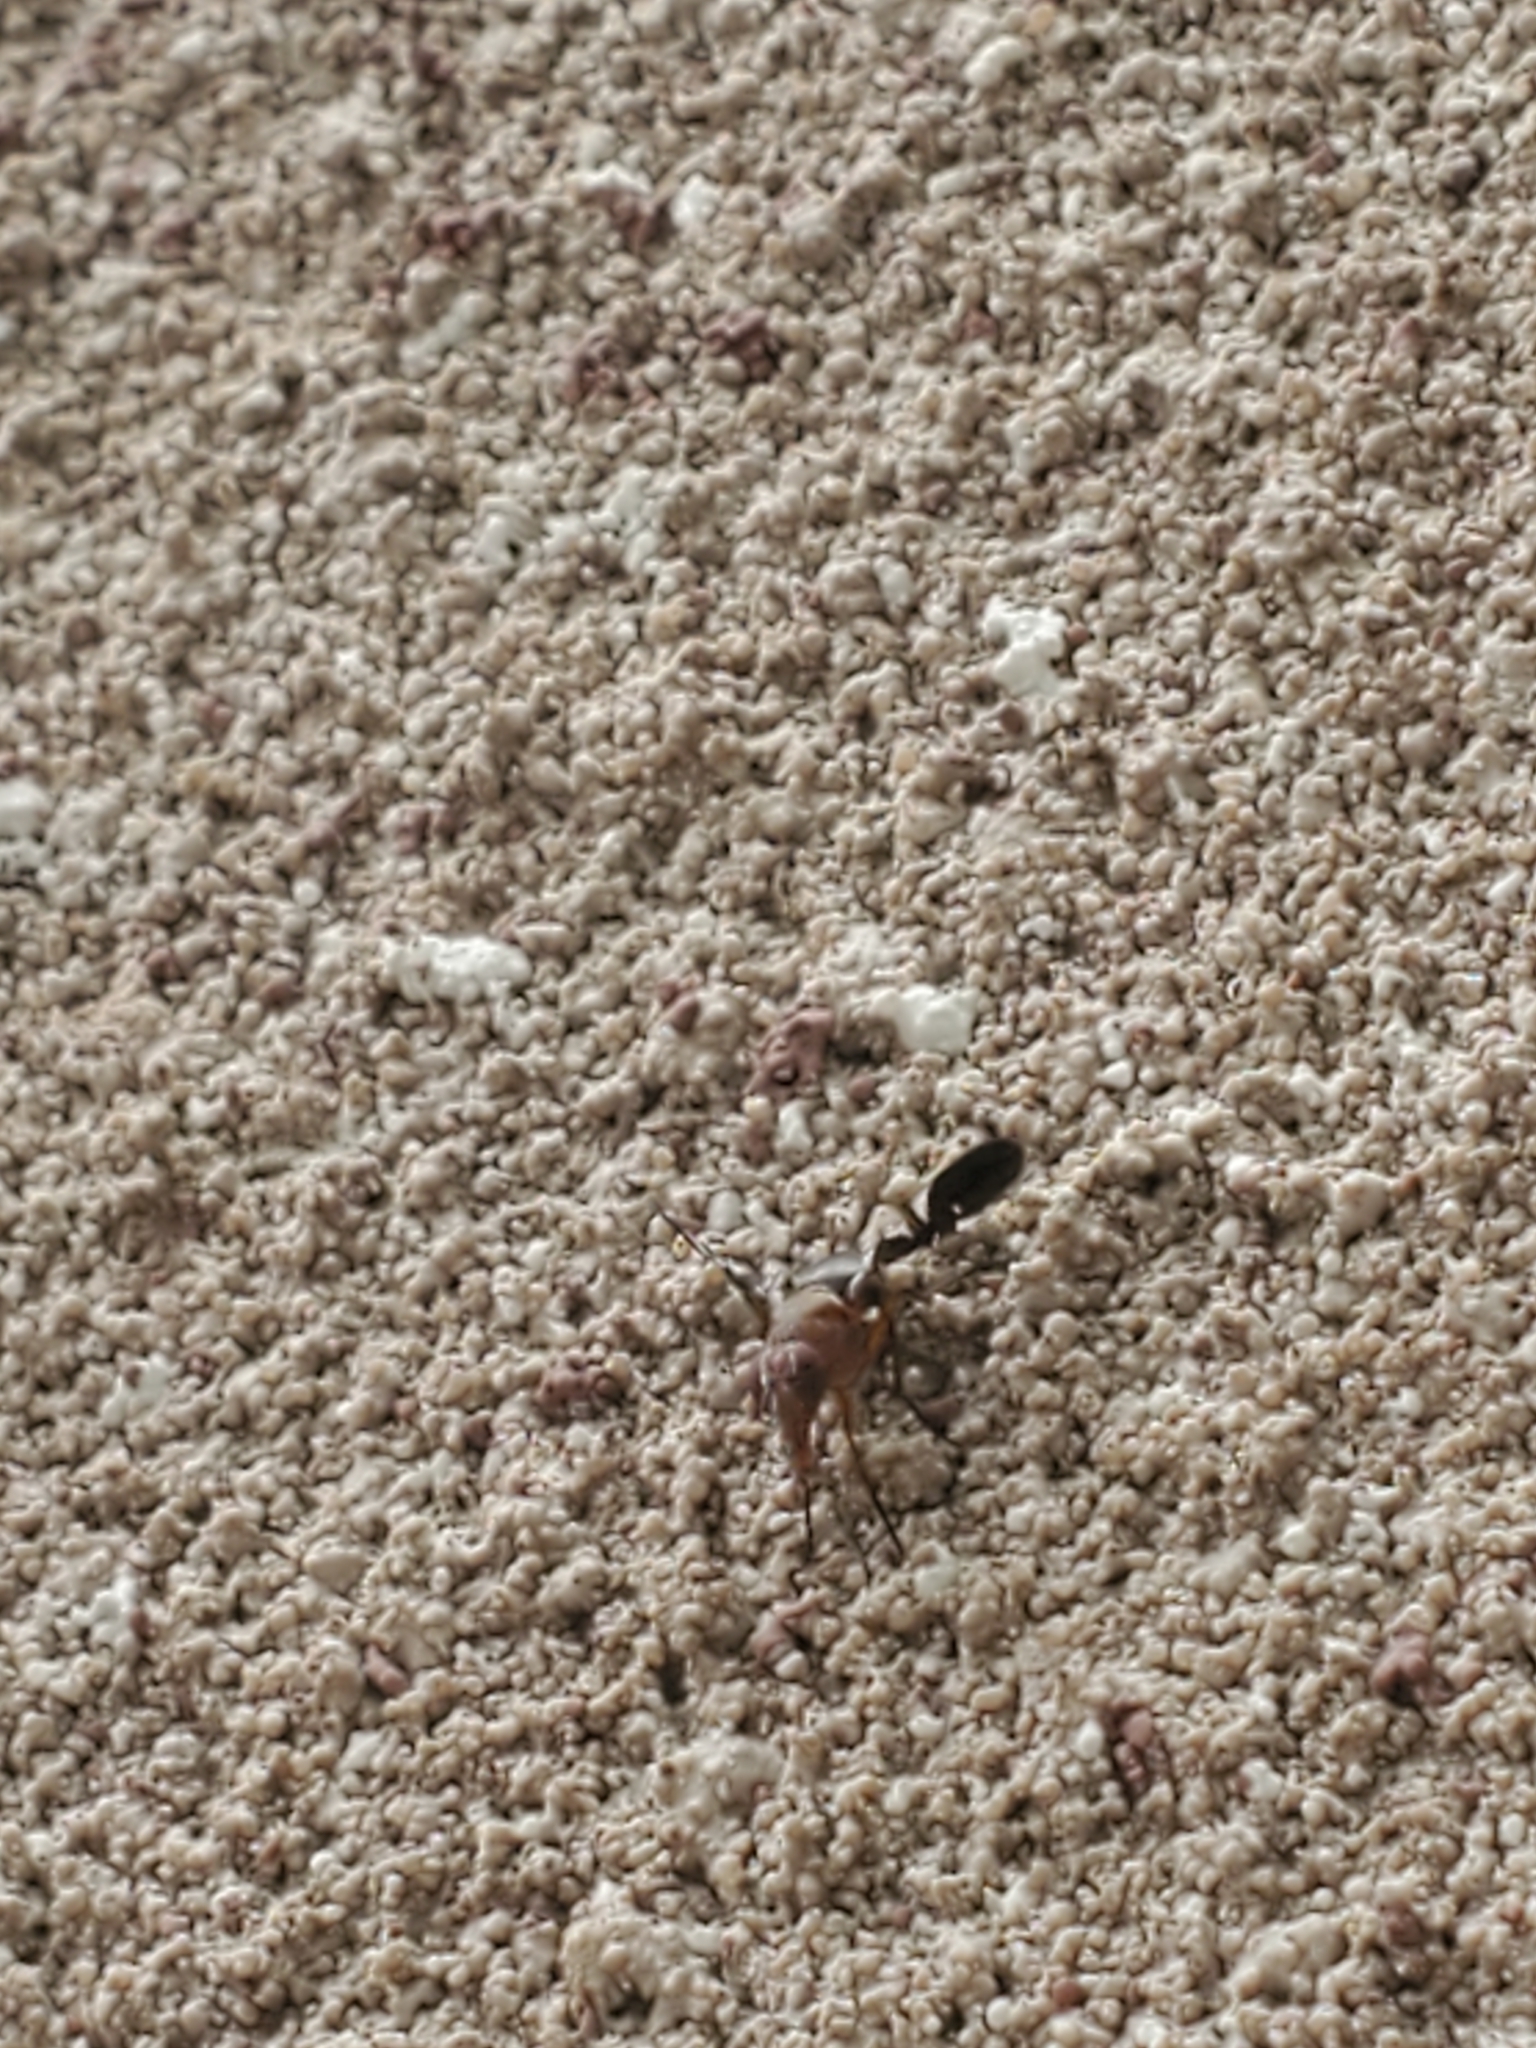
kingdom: Animalia
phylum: Arthropoda
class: Insecta
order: Diptera
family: Ulidiidae
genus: Delphinia
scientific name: Delphinia picta
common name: Common picture-winged fly
